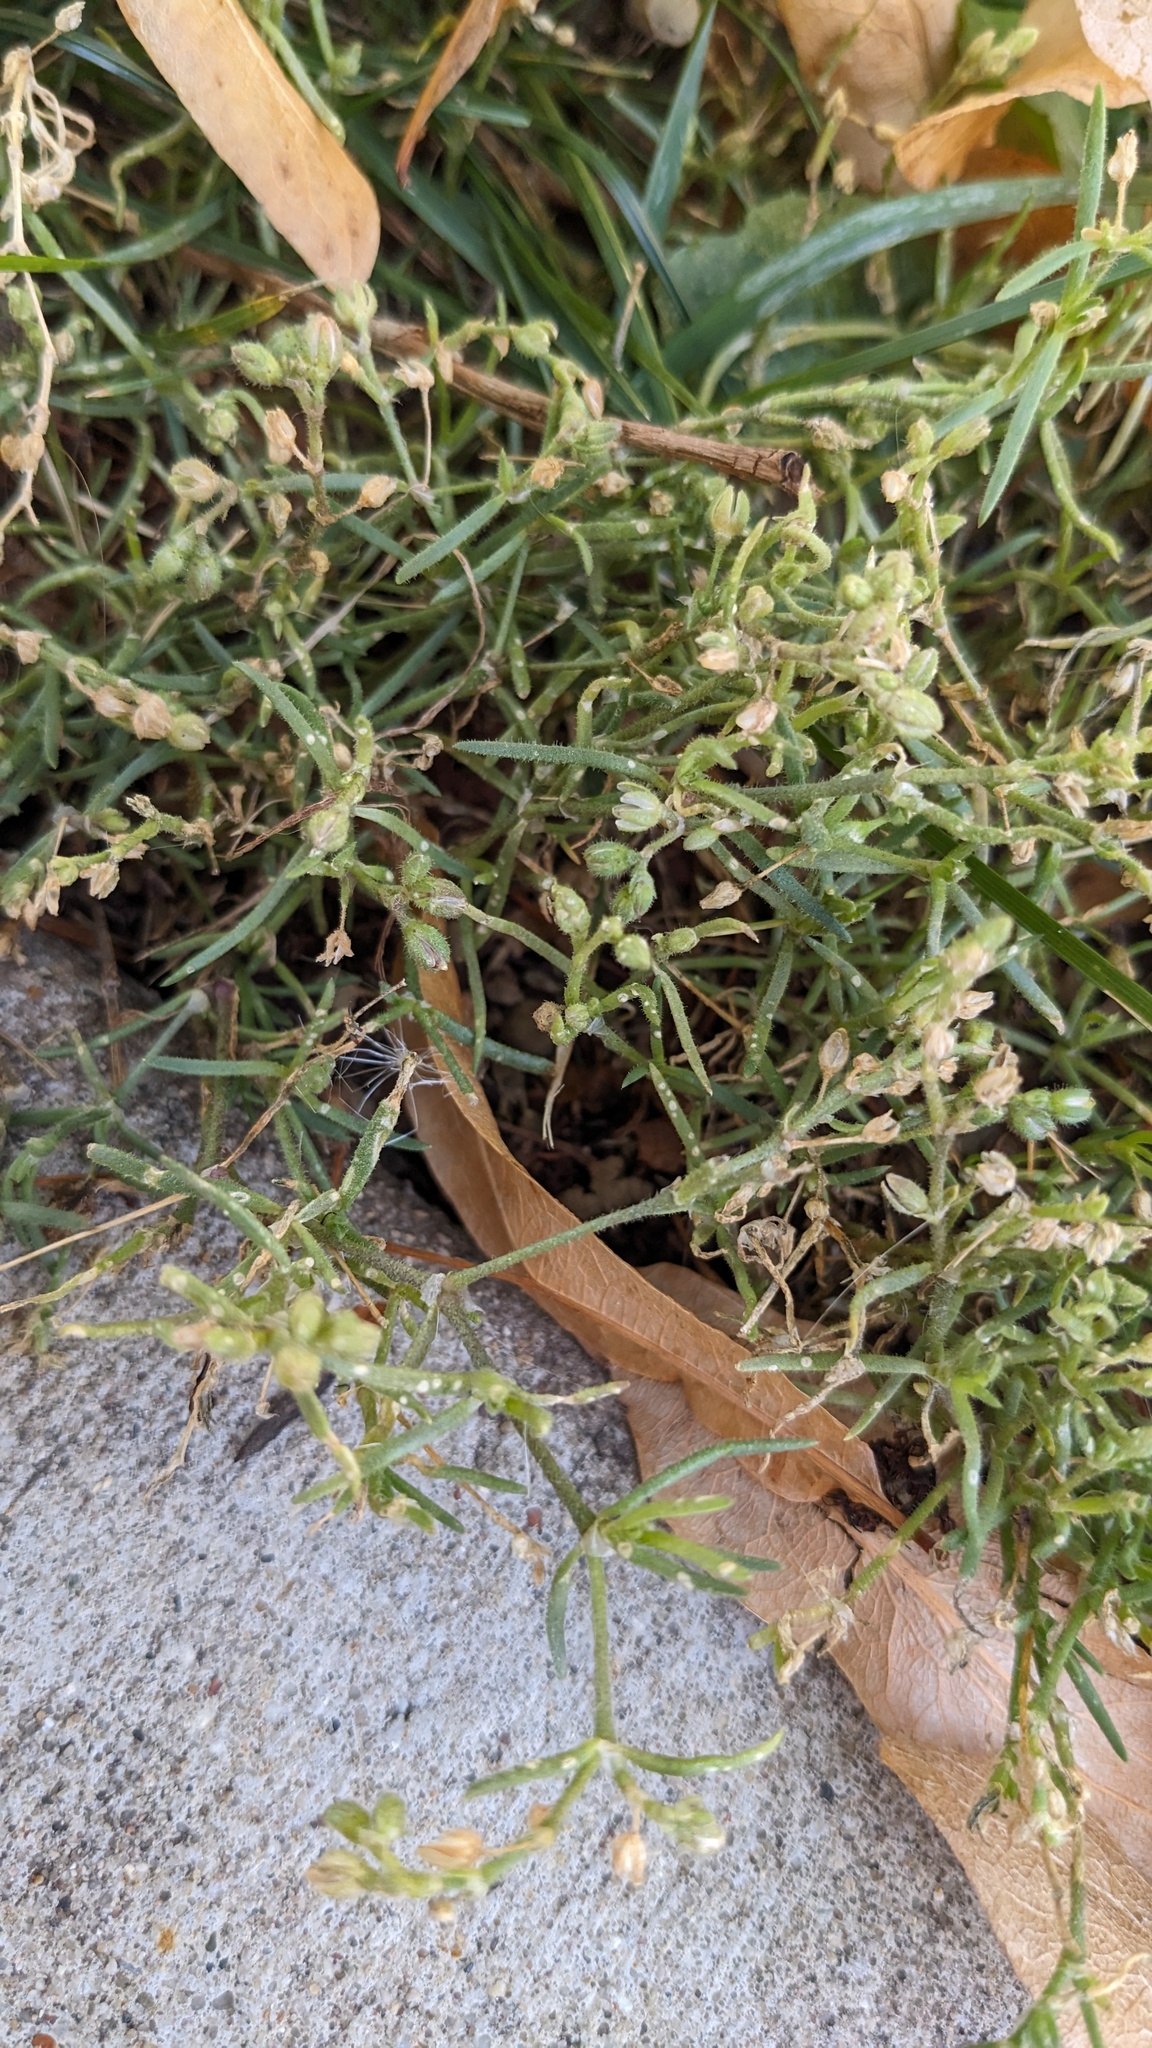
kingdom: Plantae
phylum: Tracheophyta
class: Magnoliopsida
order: Caryophyllales
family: Caryophyllaceae
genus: Spergularia
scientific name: Spergularia marina
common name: Lesser sea-spurrey
